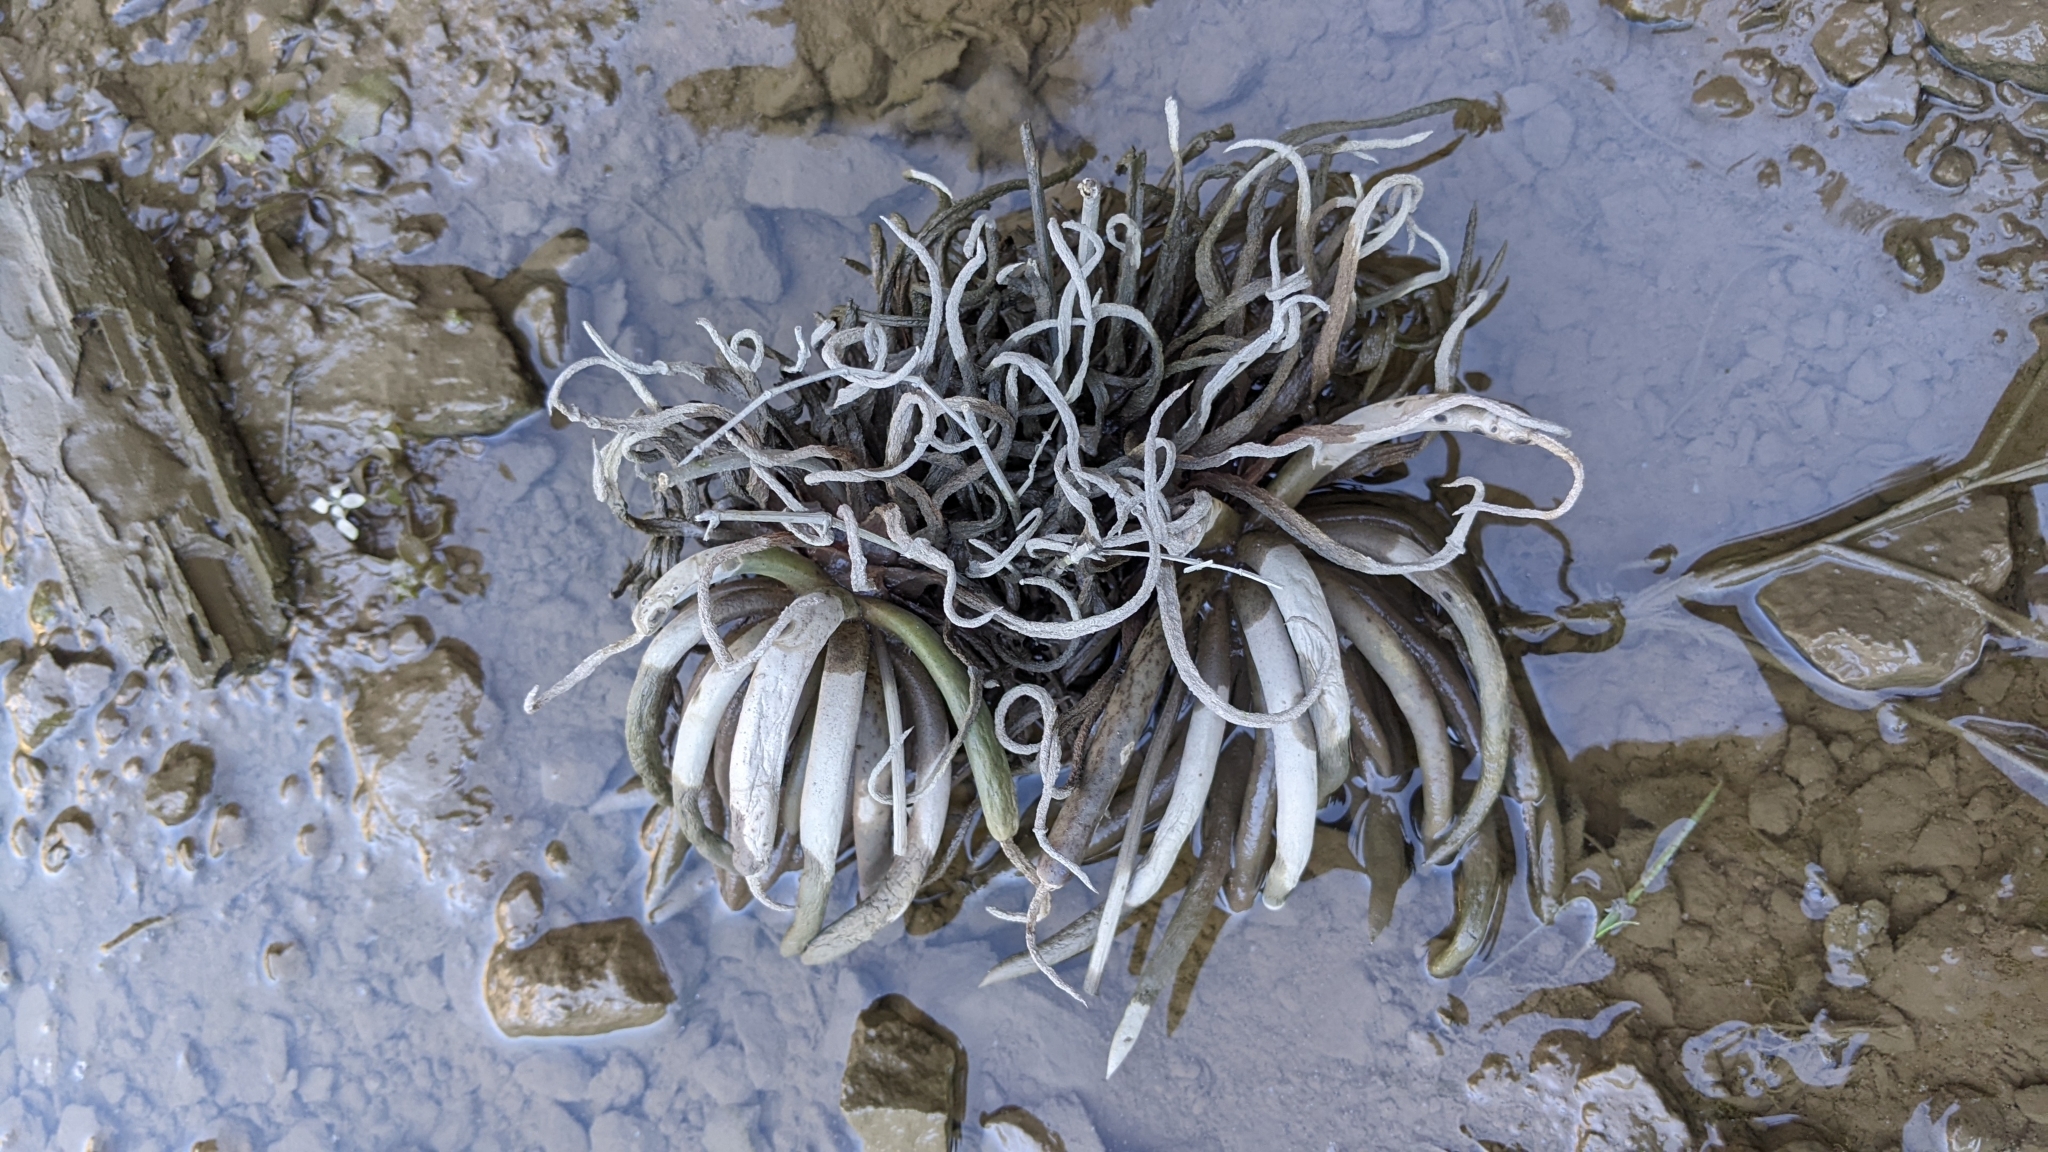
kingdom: Plantae
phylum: Tracheophyta
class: Magnoliopsida
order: Saxifragales
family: Crassulaceae
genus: Dudleya
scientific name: Dudleya densiflora
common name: San gabriel mountains dudleya
